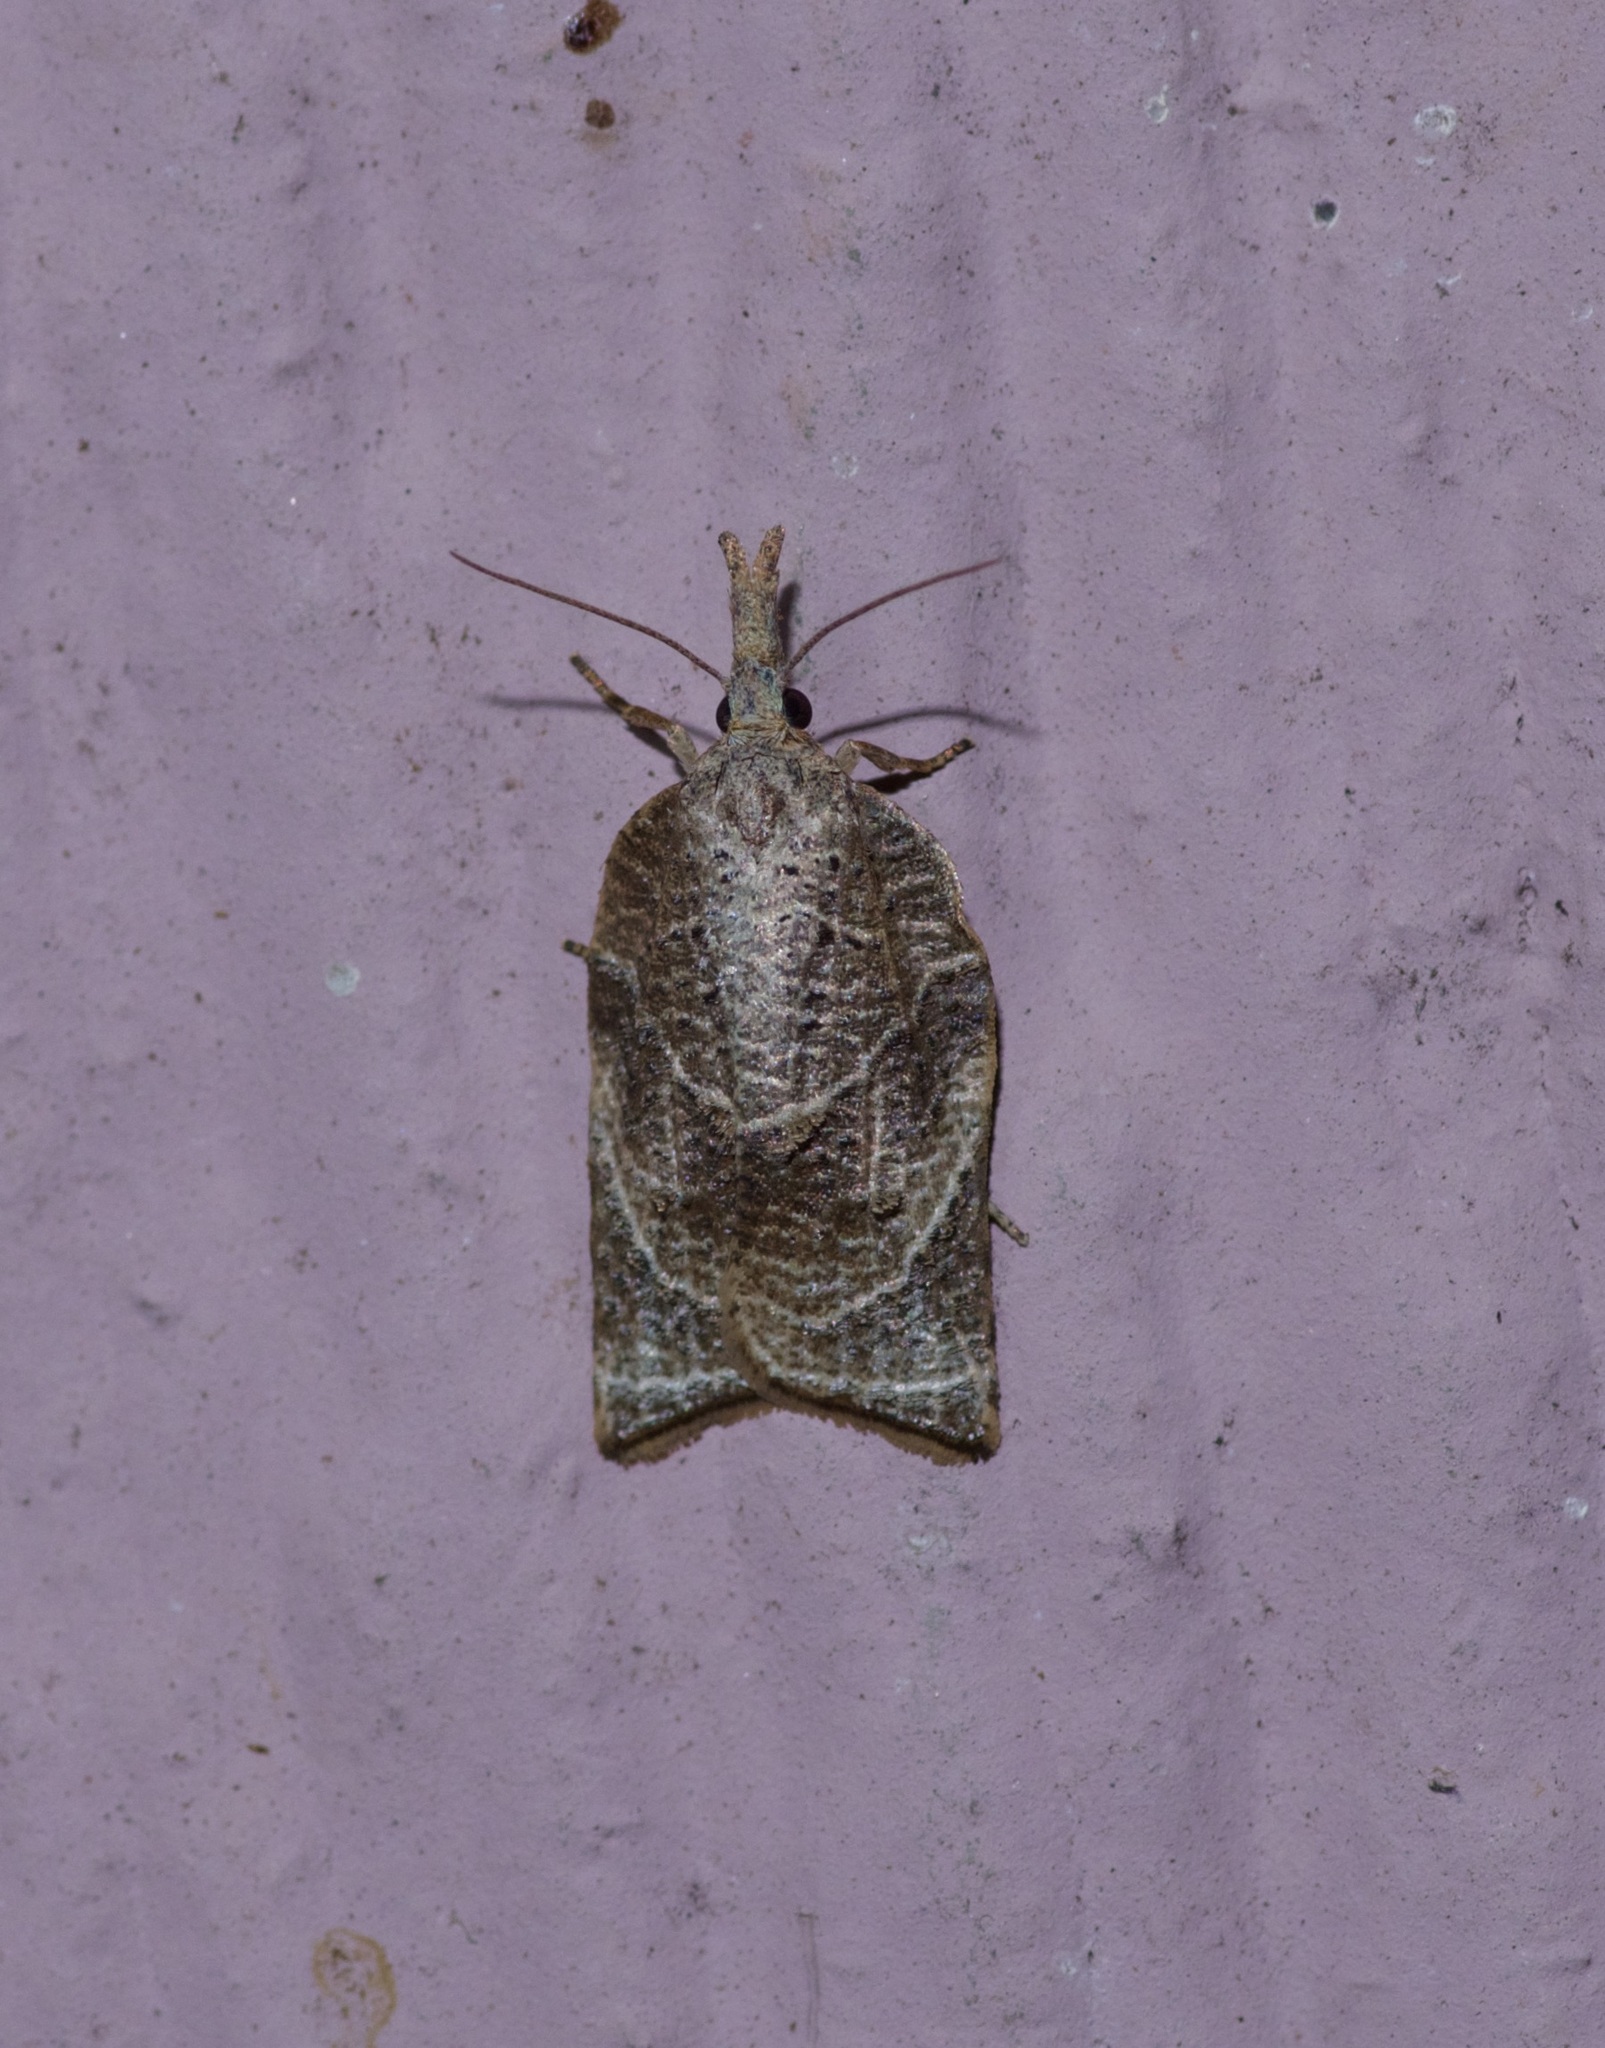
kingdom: Animalia
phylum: Arthropoda
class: Insecta
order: Lepidoptera
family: Tortricidae
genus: Platynota
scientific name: Platynota rostrana
